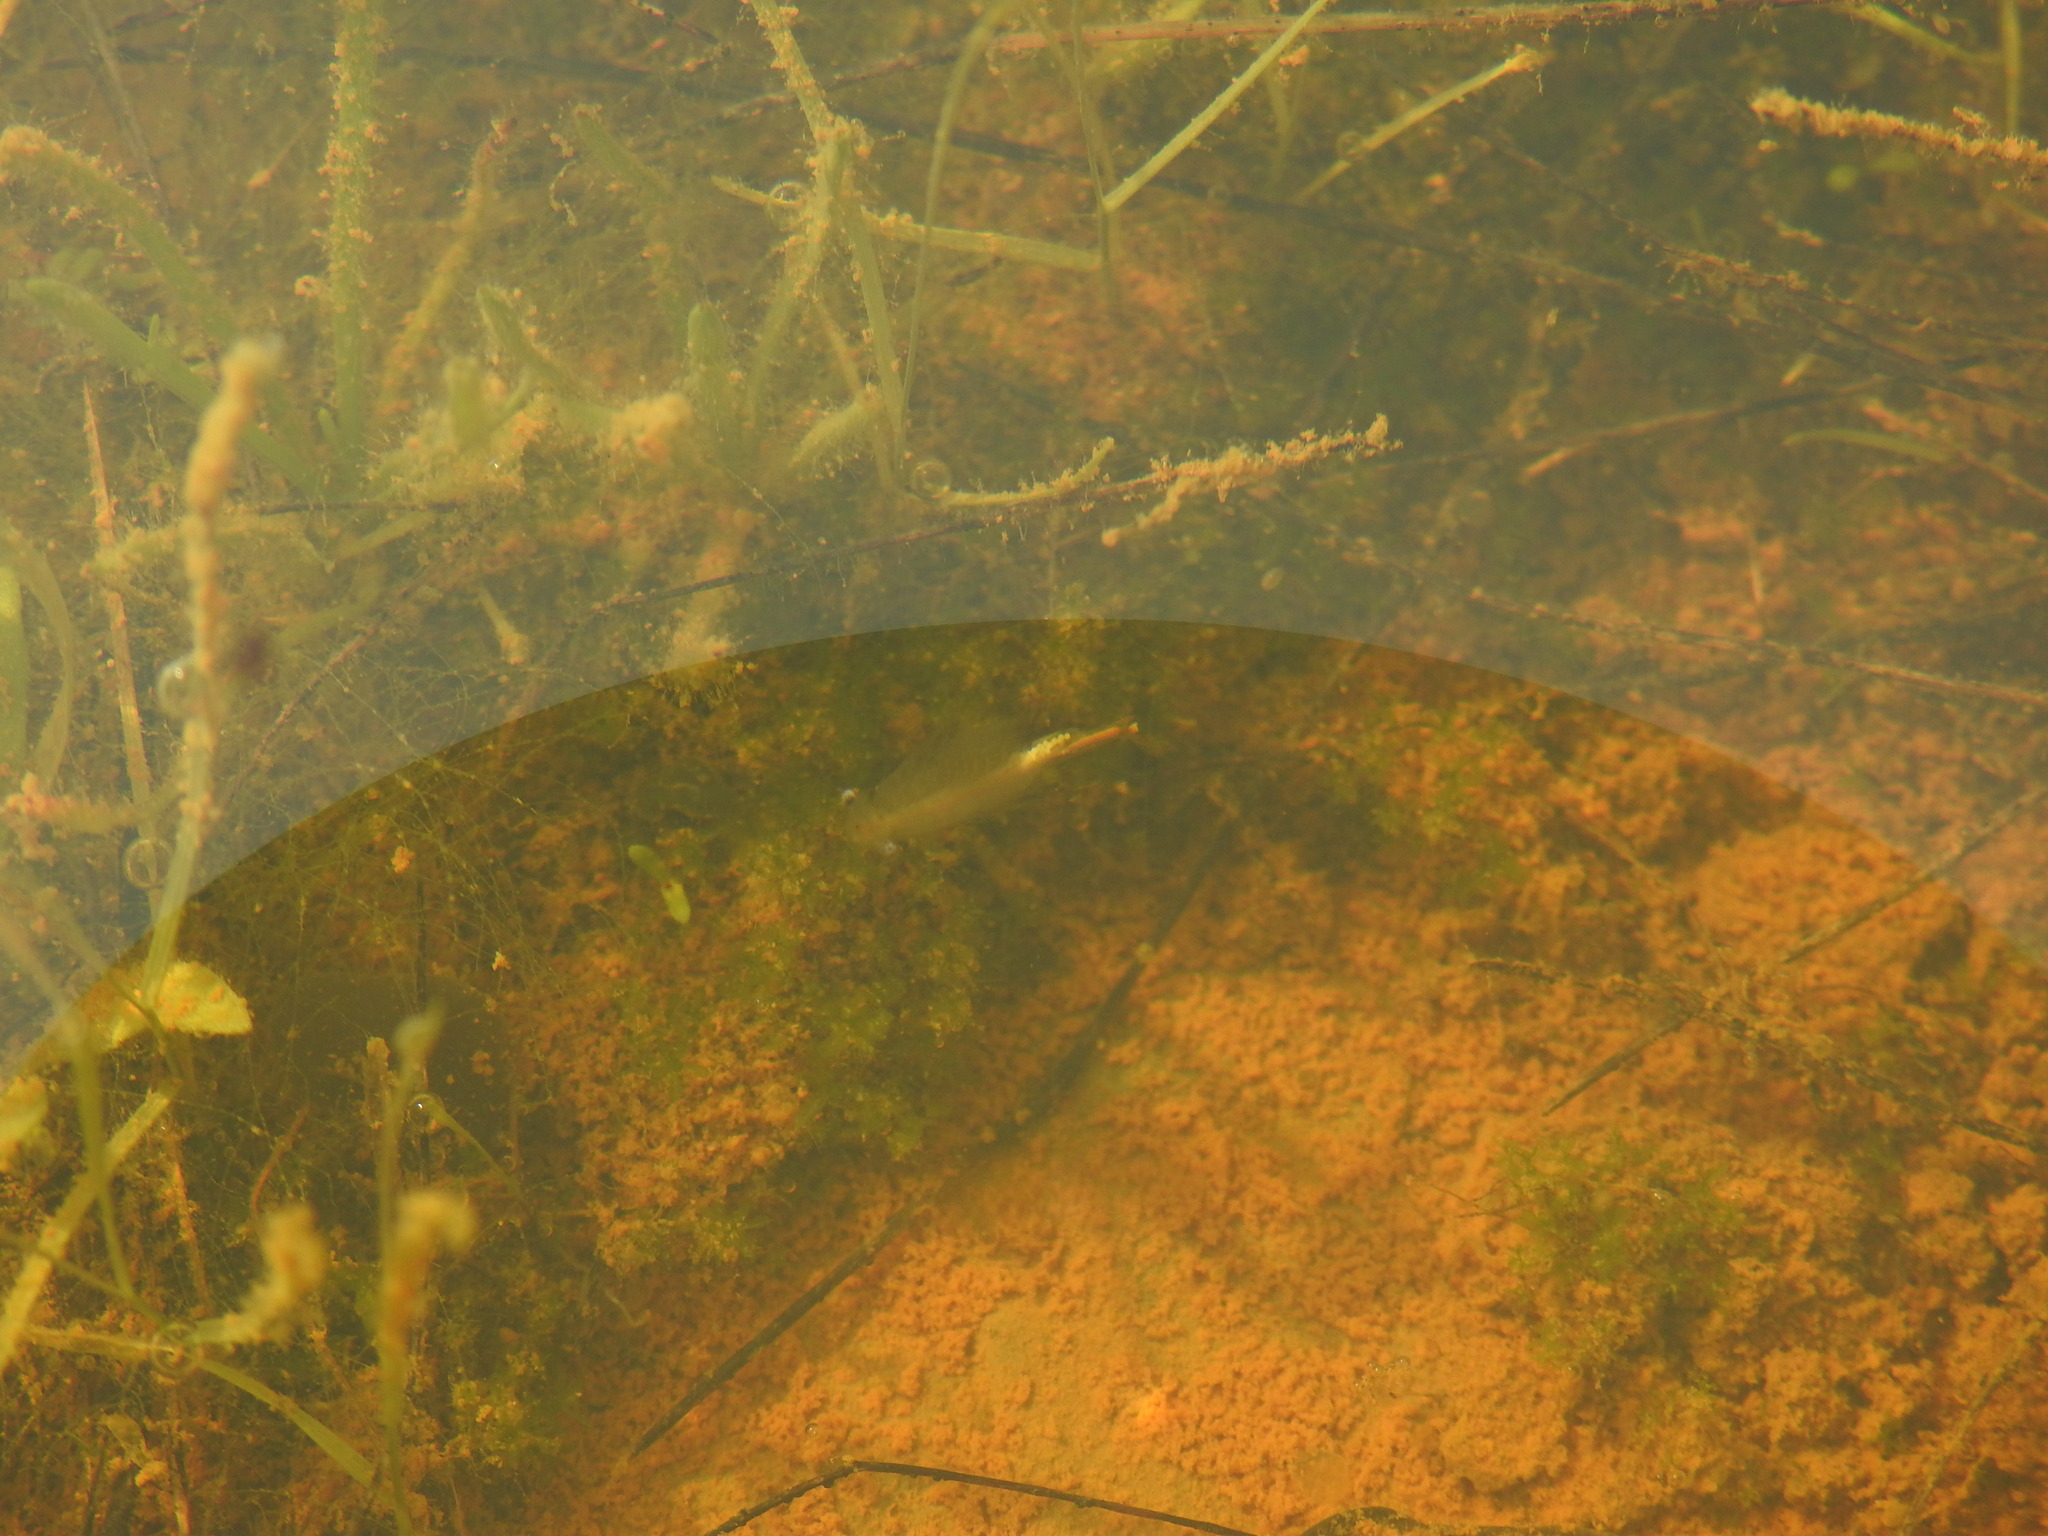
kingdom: Animalia
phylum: Arthropoda
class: Branchiopoda
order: Anostraca
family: Chirocephalidae
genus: Chirocephalus
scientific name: Chirocephalus diaphanus
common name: Fairy shrimp
